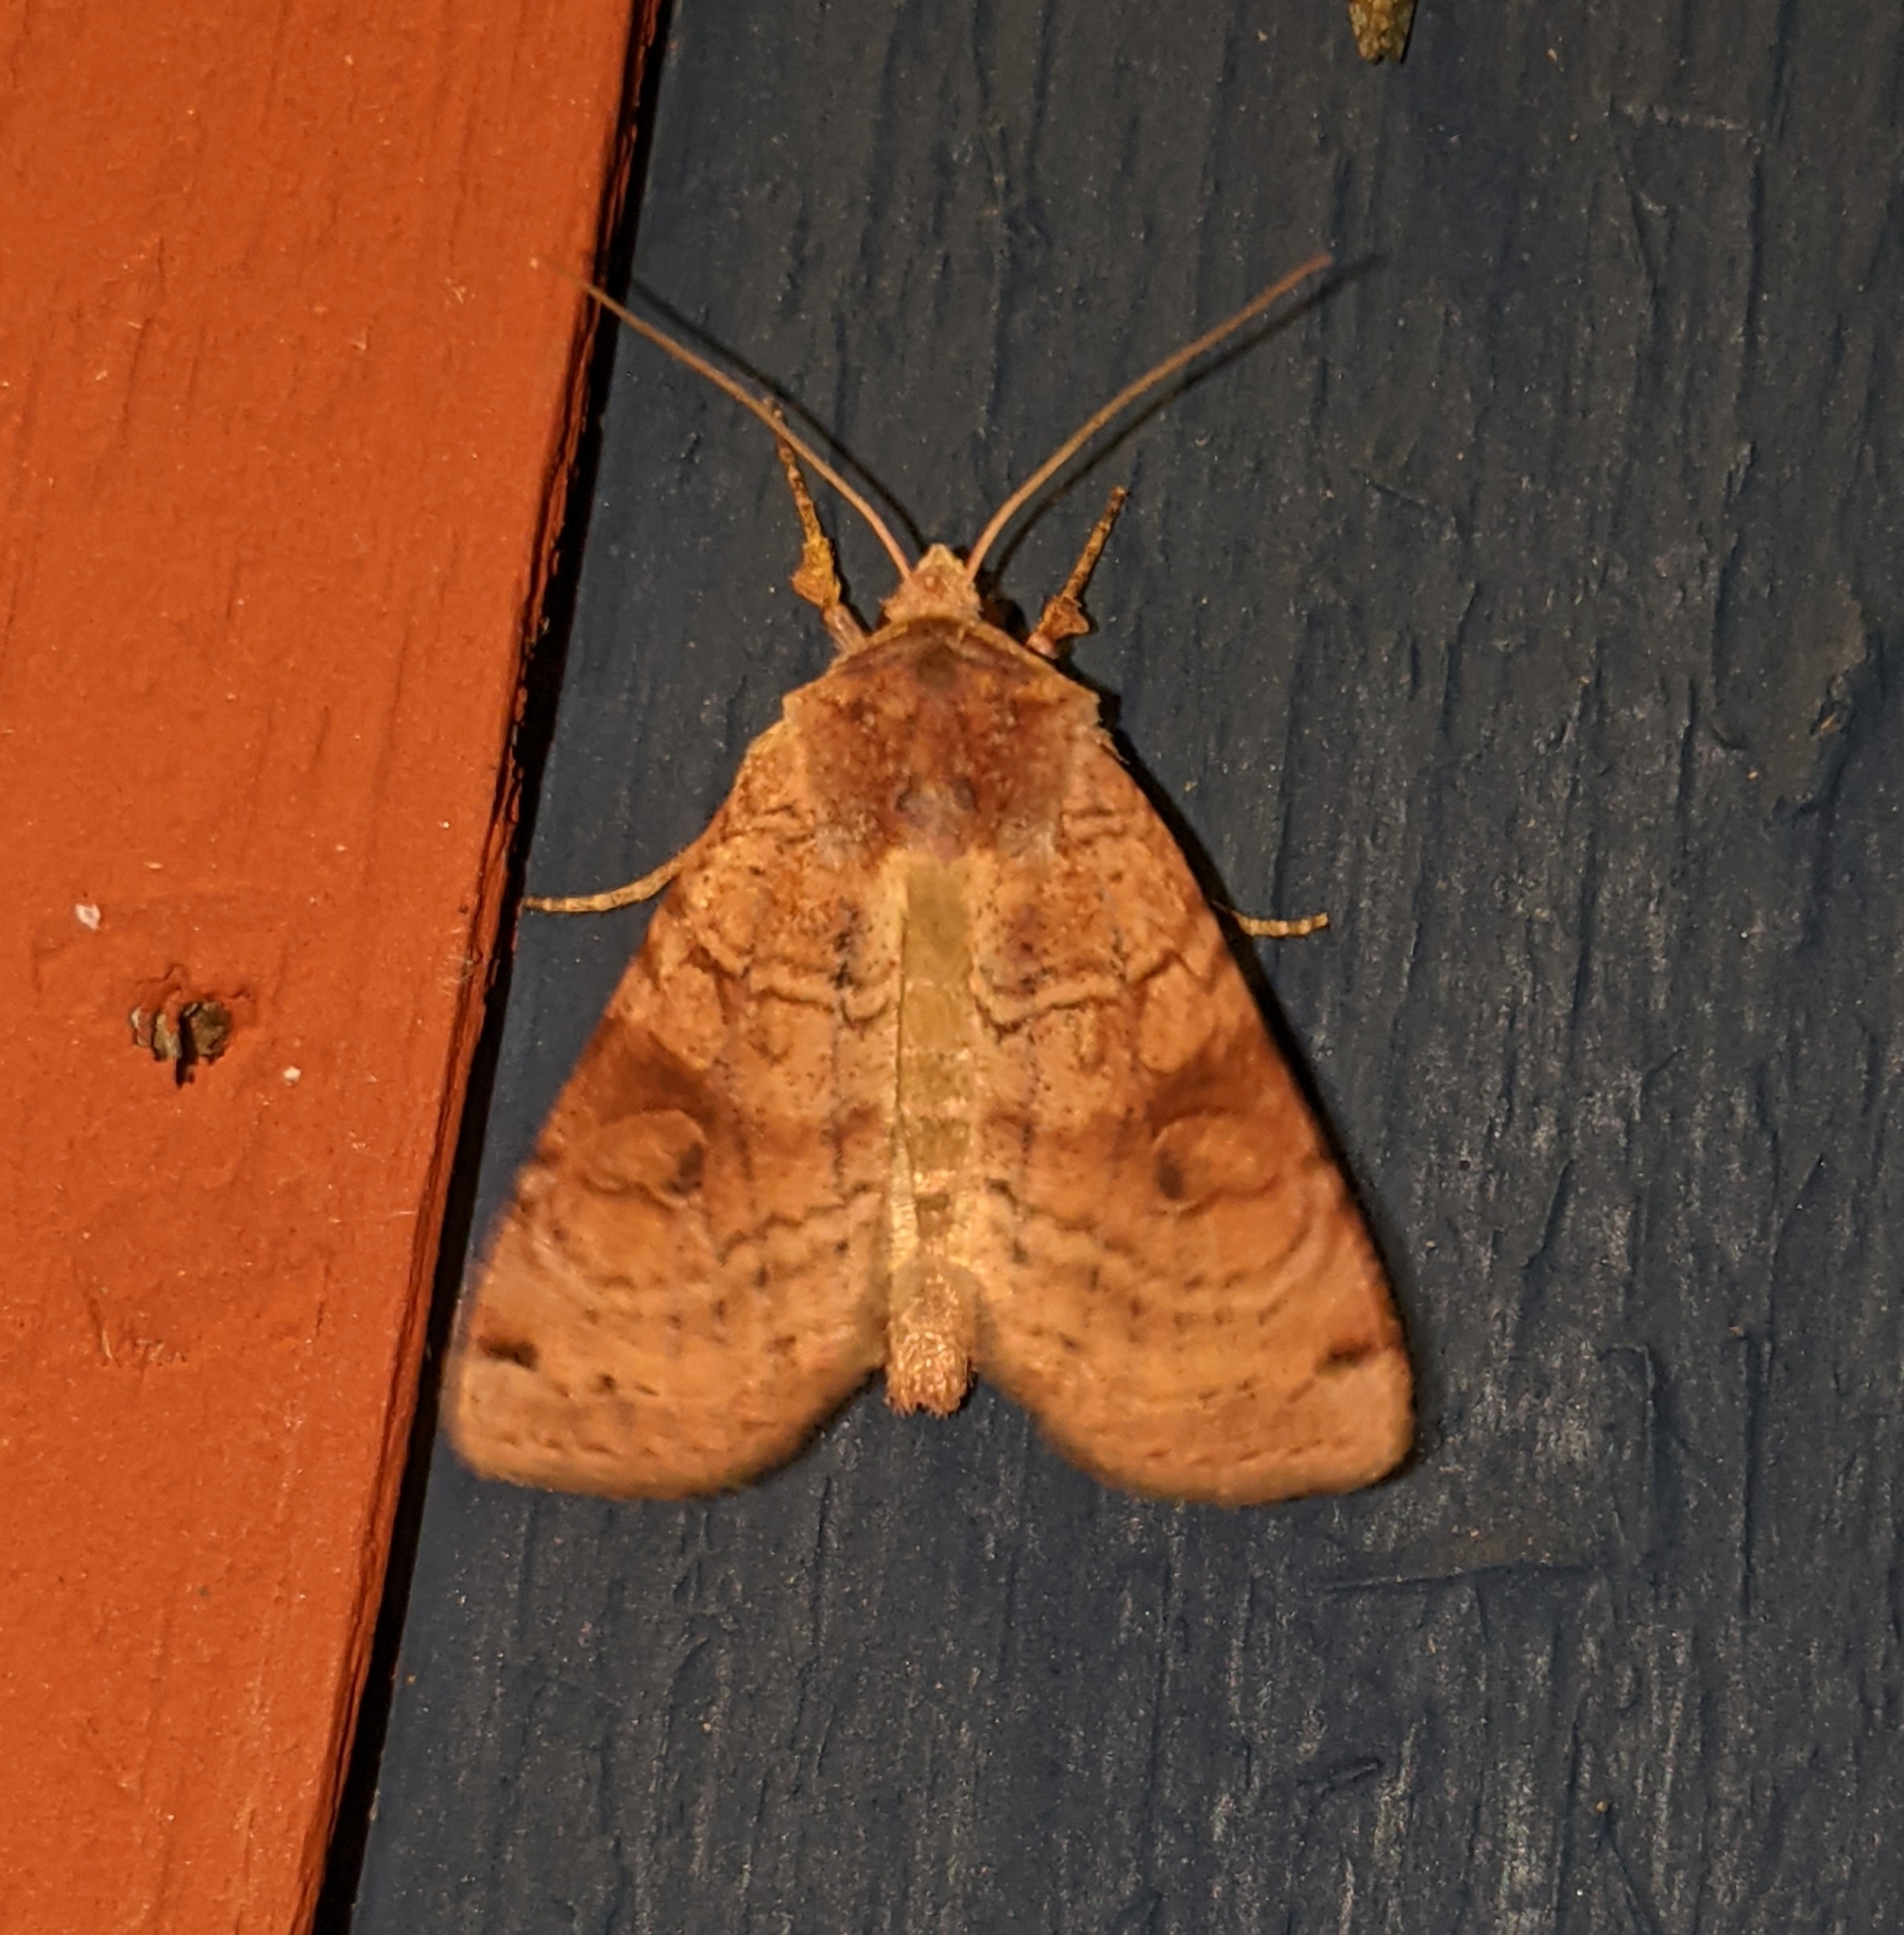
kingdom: Animalia
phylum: Arthropoda
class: Insecta
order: Lepidoptera
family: Noctuidae
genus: Xestia
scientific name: Xestia smithii
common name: Smith's dart
